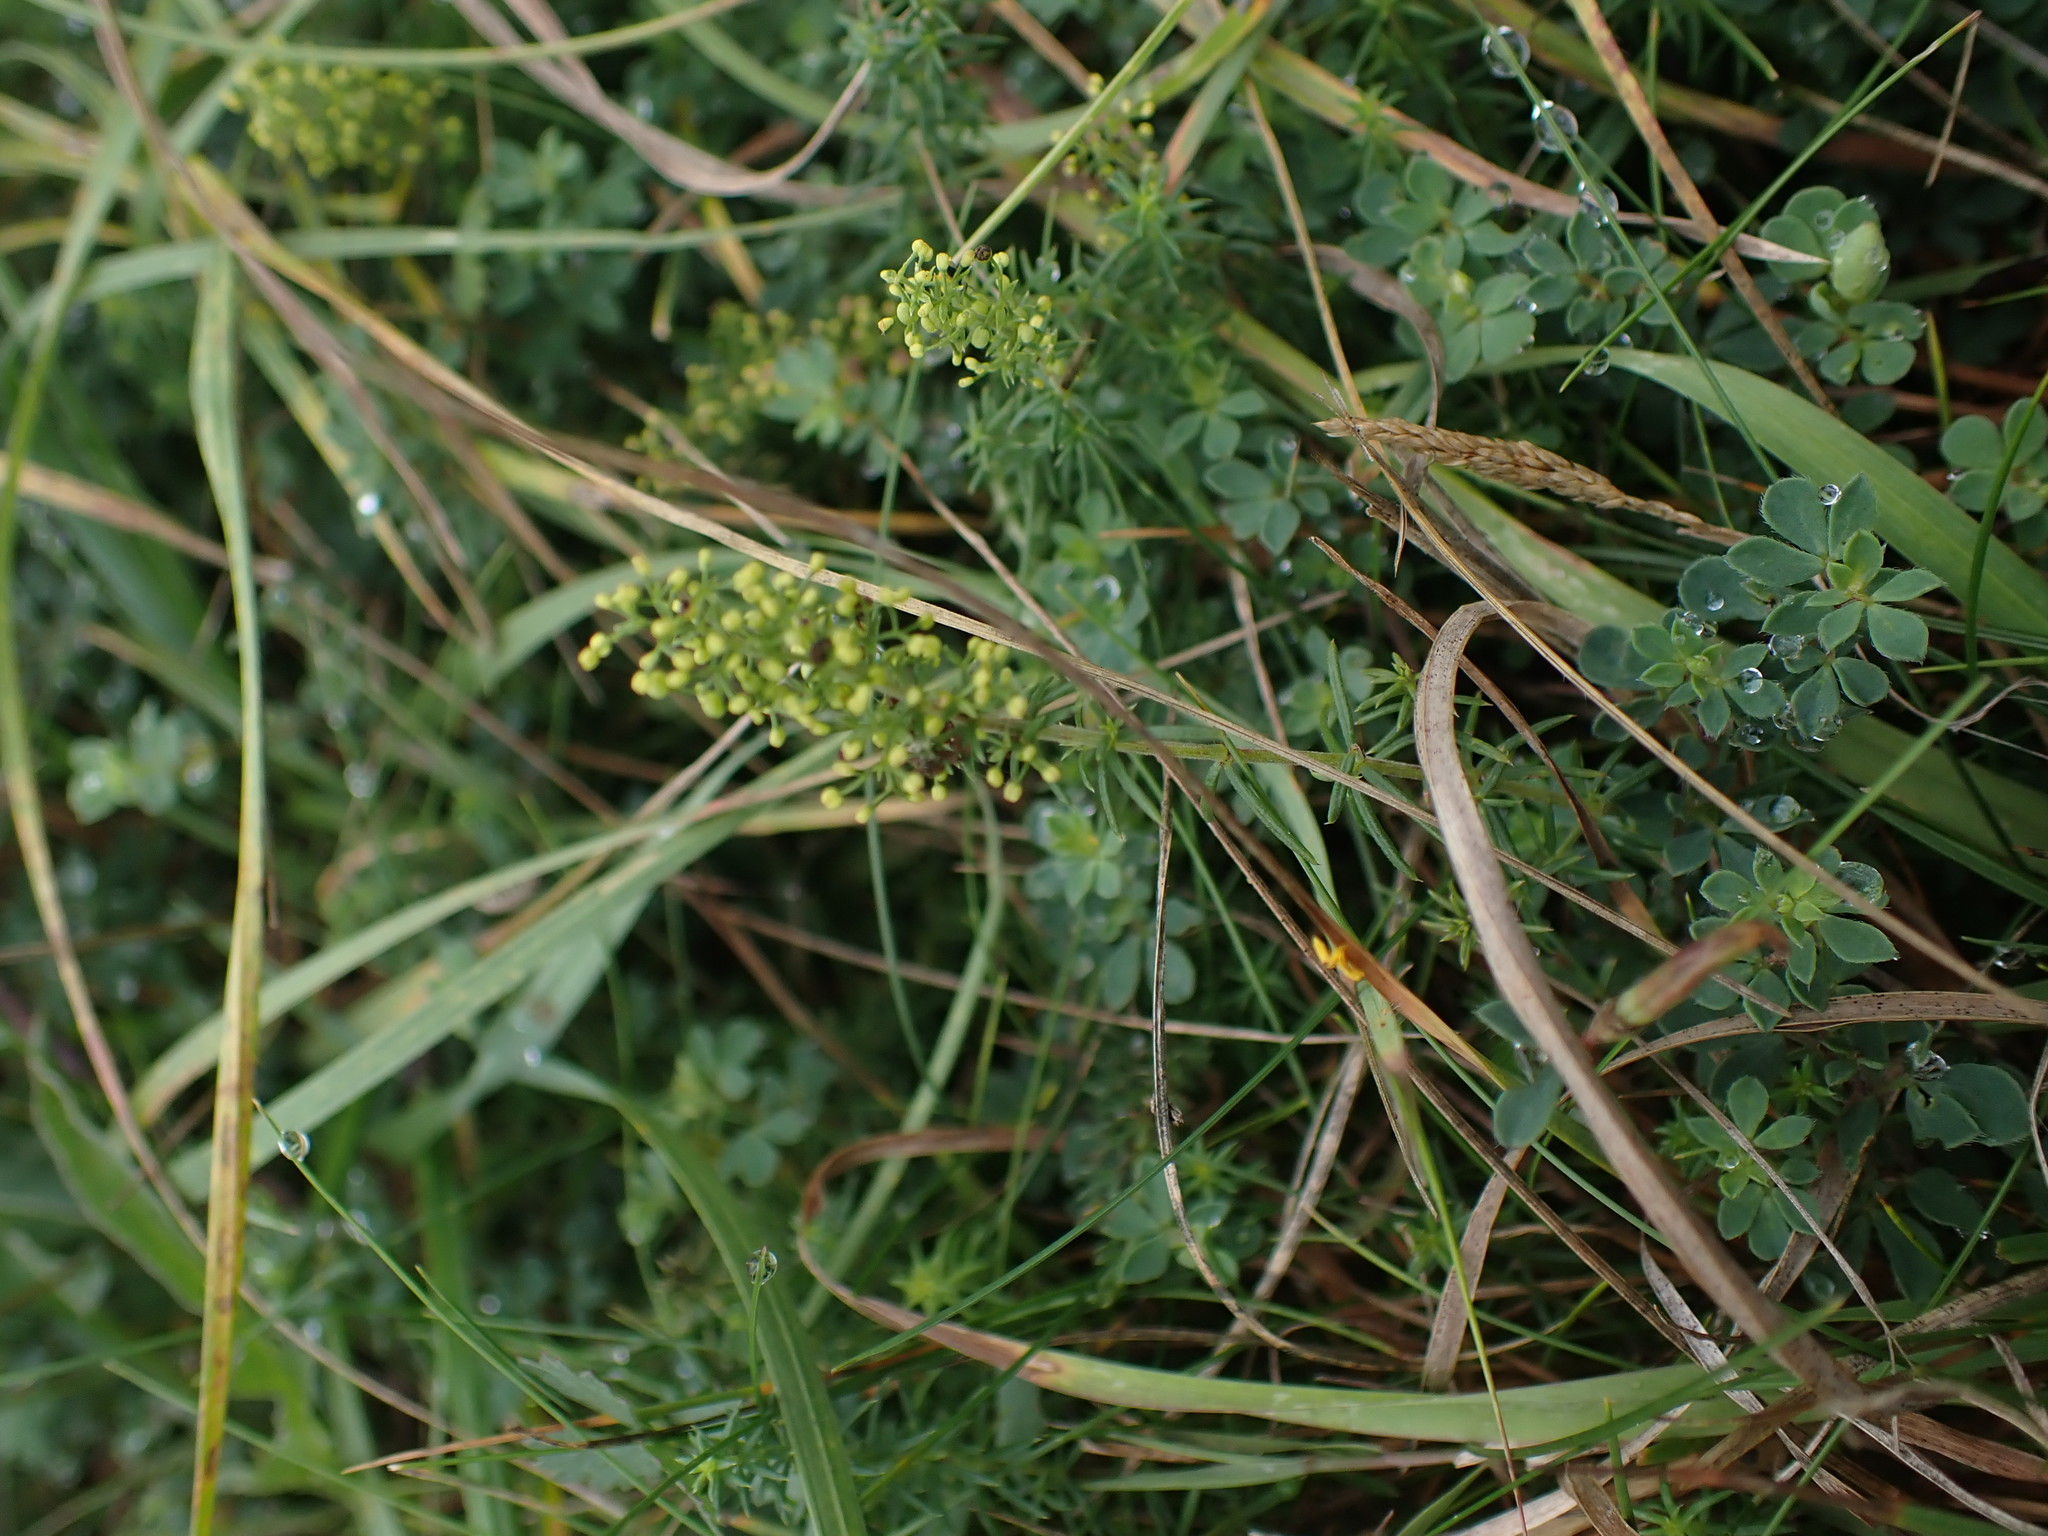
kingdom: Plantae
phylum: Tracheophyta
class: Magnoliopsida
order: Gentianales
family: Rubiaceae
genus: Galium
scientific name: Galium verum
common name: Lady's bedstraw
